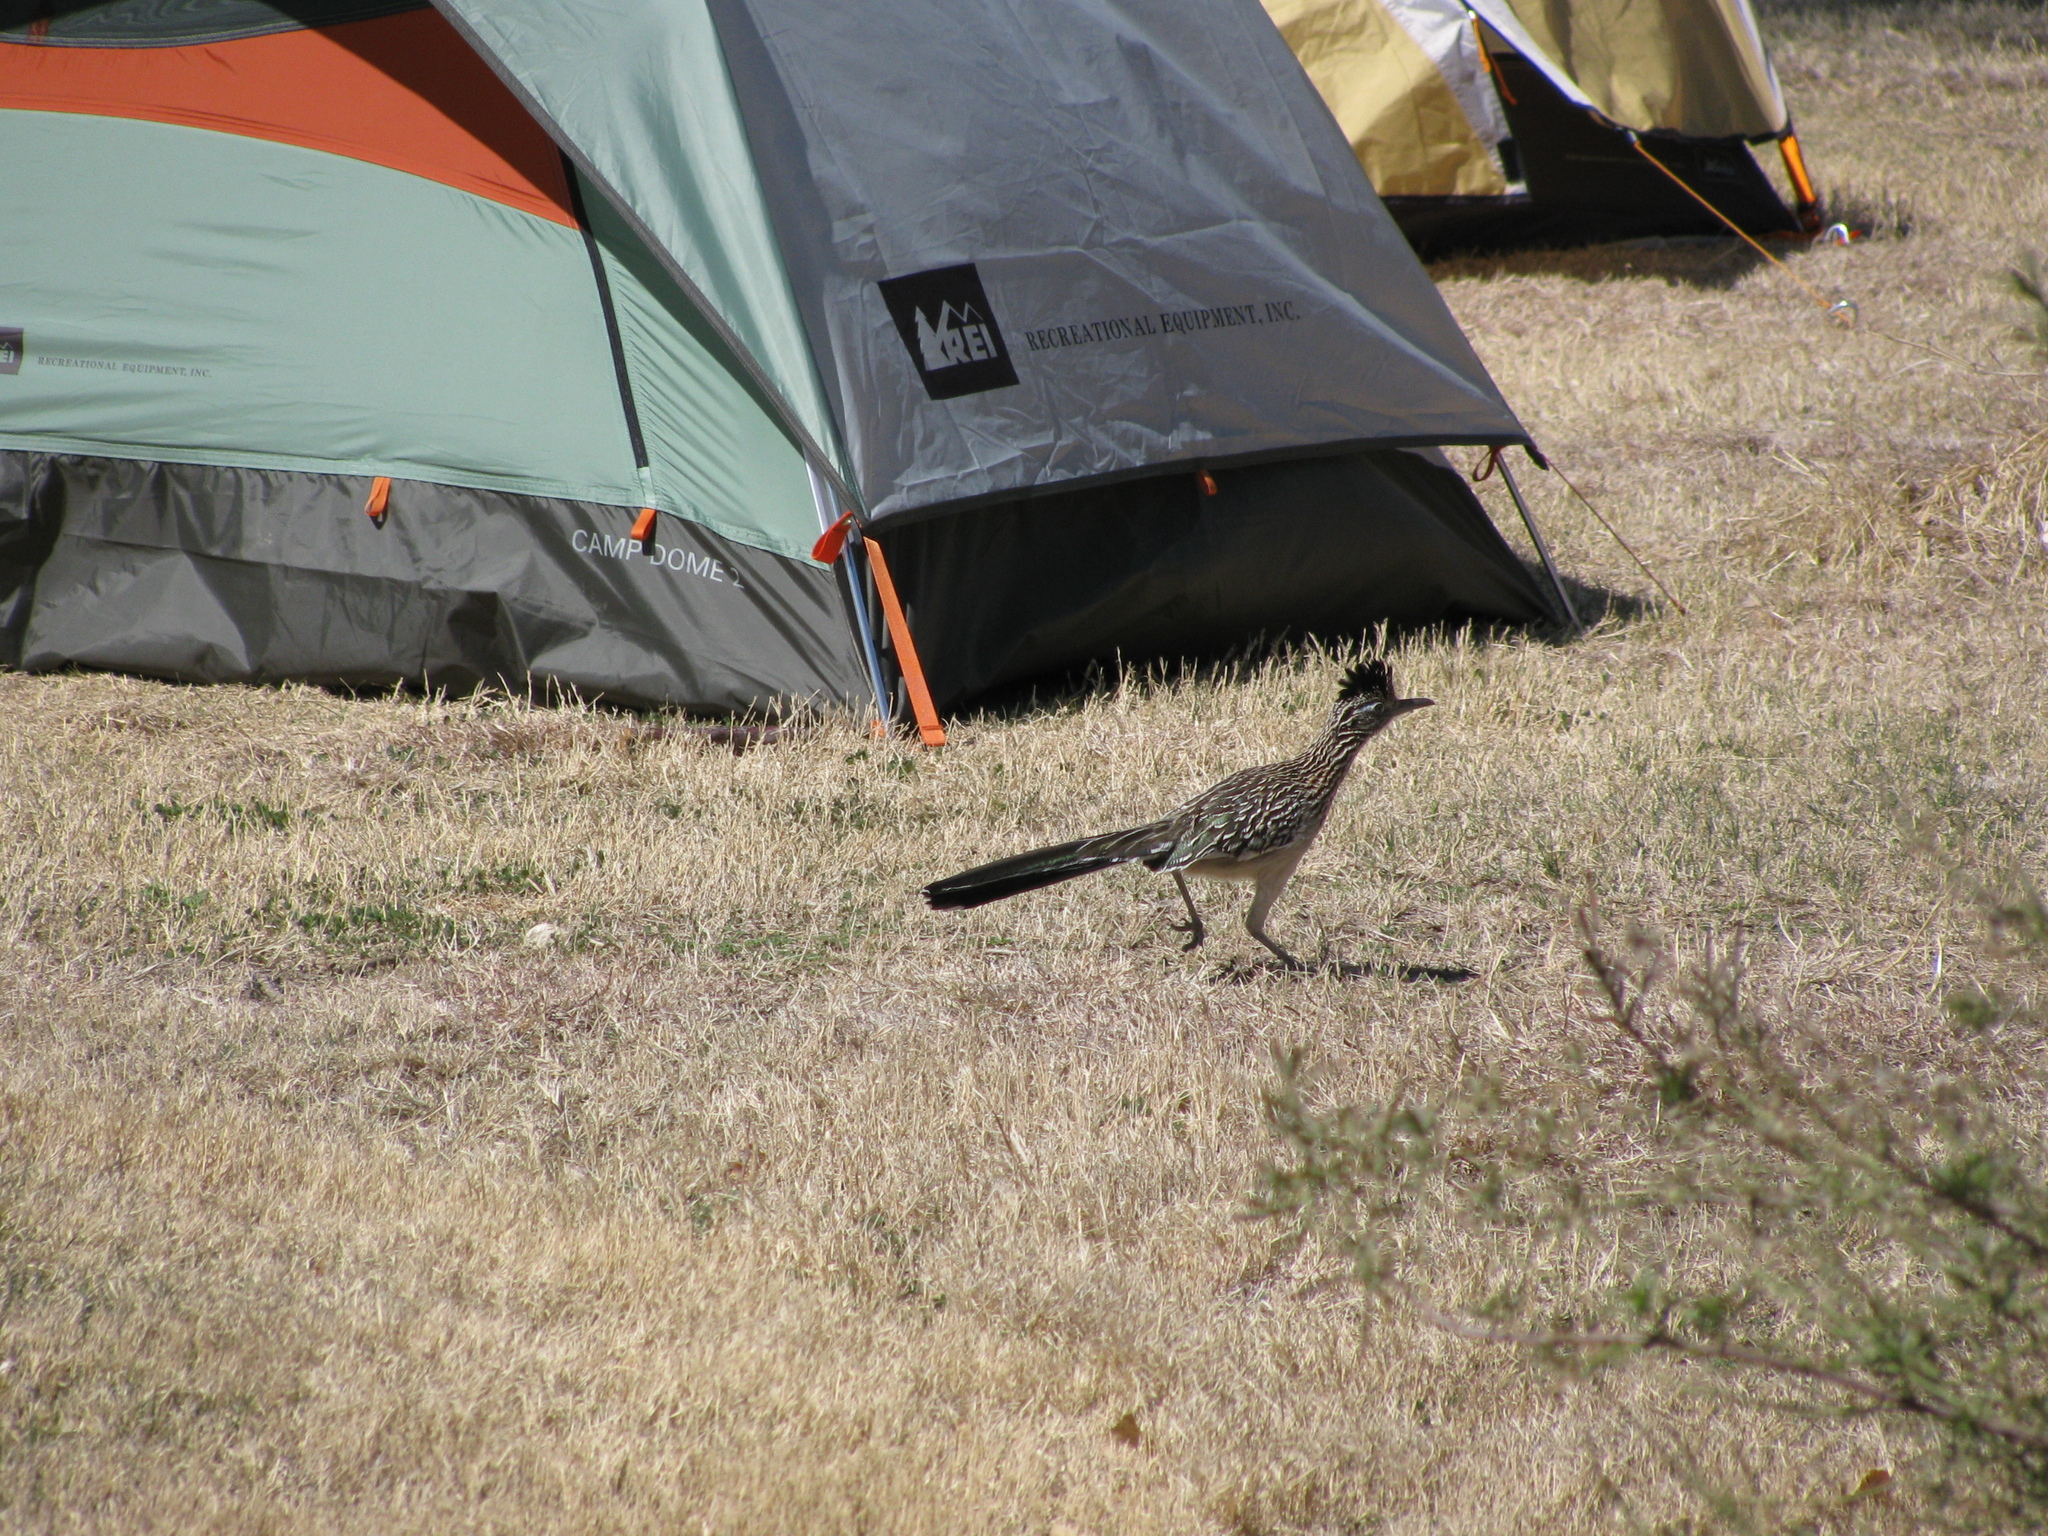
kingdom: Animalia
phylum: Chordata
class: Aves
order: Cuculiformes
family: Cuculidae
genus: Geococcyx
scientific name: Geococcyx californianus
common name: Greater roadrunner
